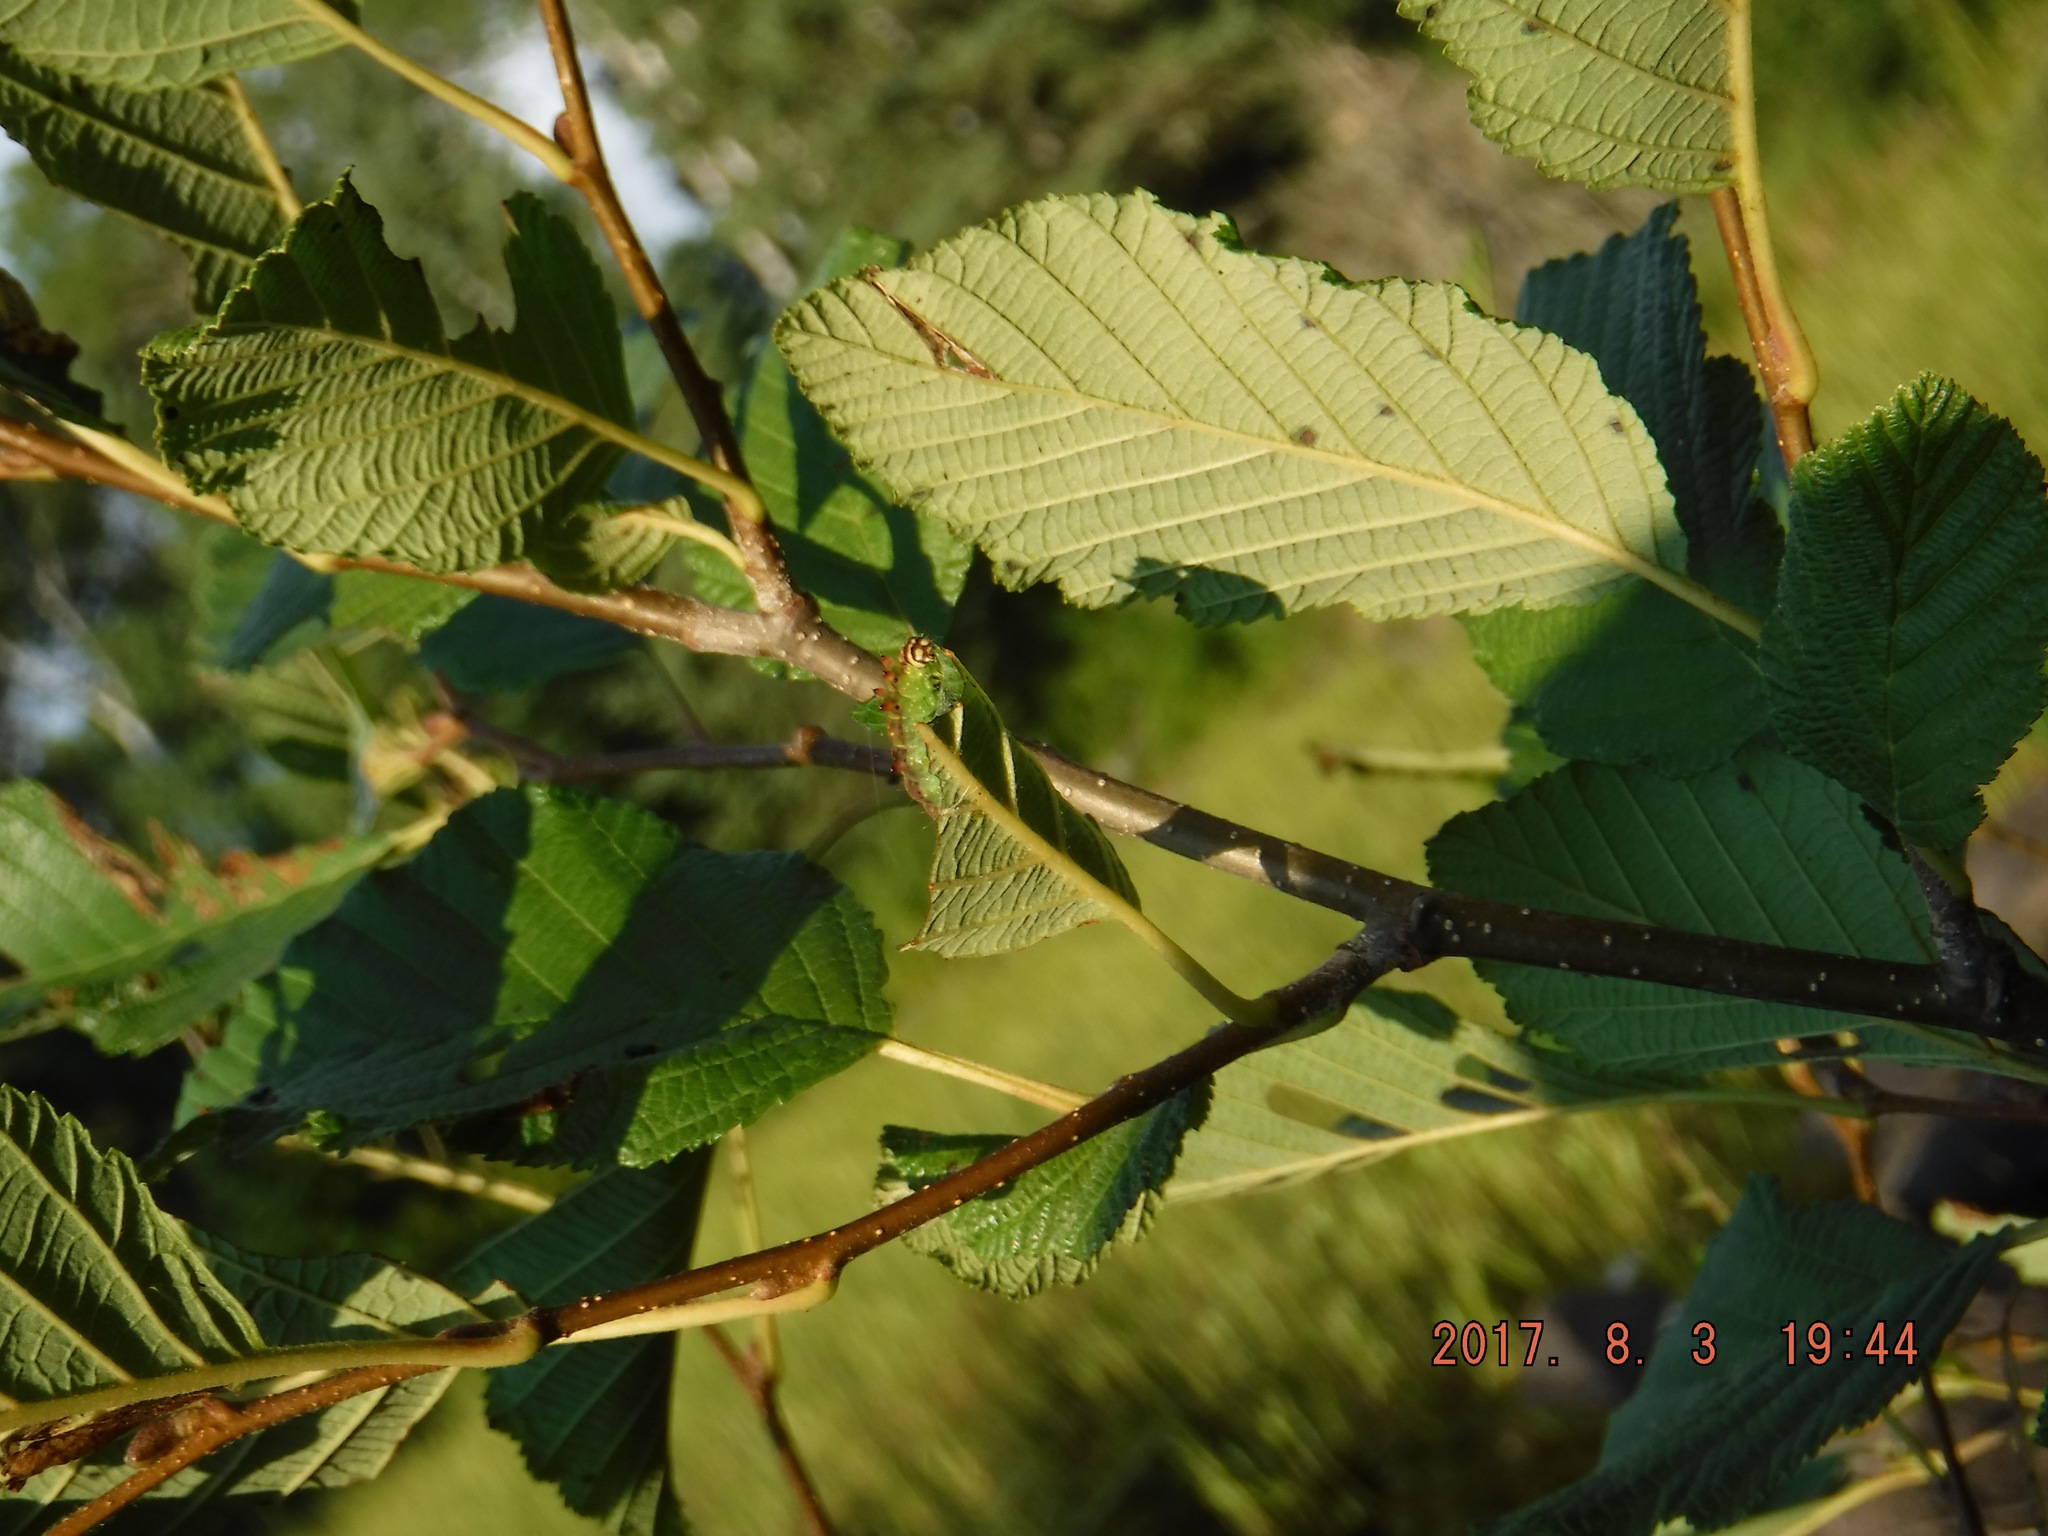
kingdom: Animalia
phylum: Arthropoda
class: Insecta
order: Lepidoptera
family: Drepanidae
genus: Drepana
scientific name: Drepana arcuata
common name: Arched hooktip moth
